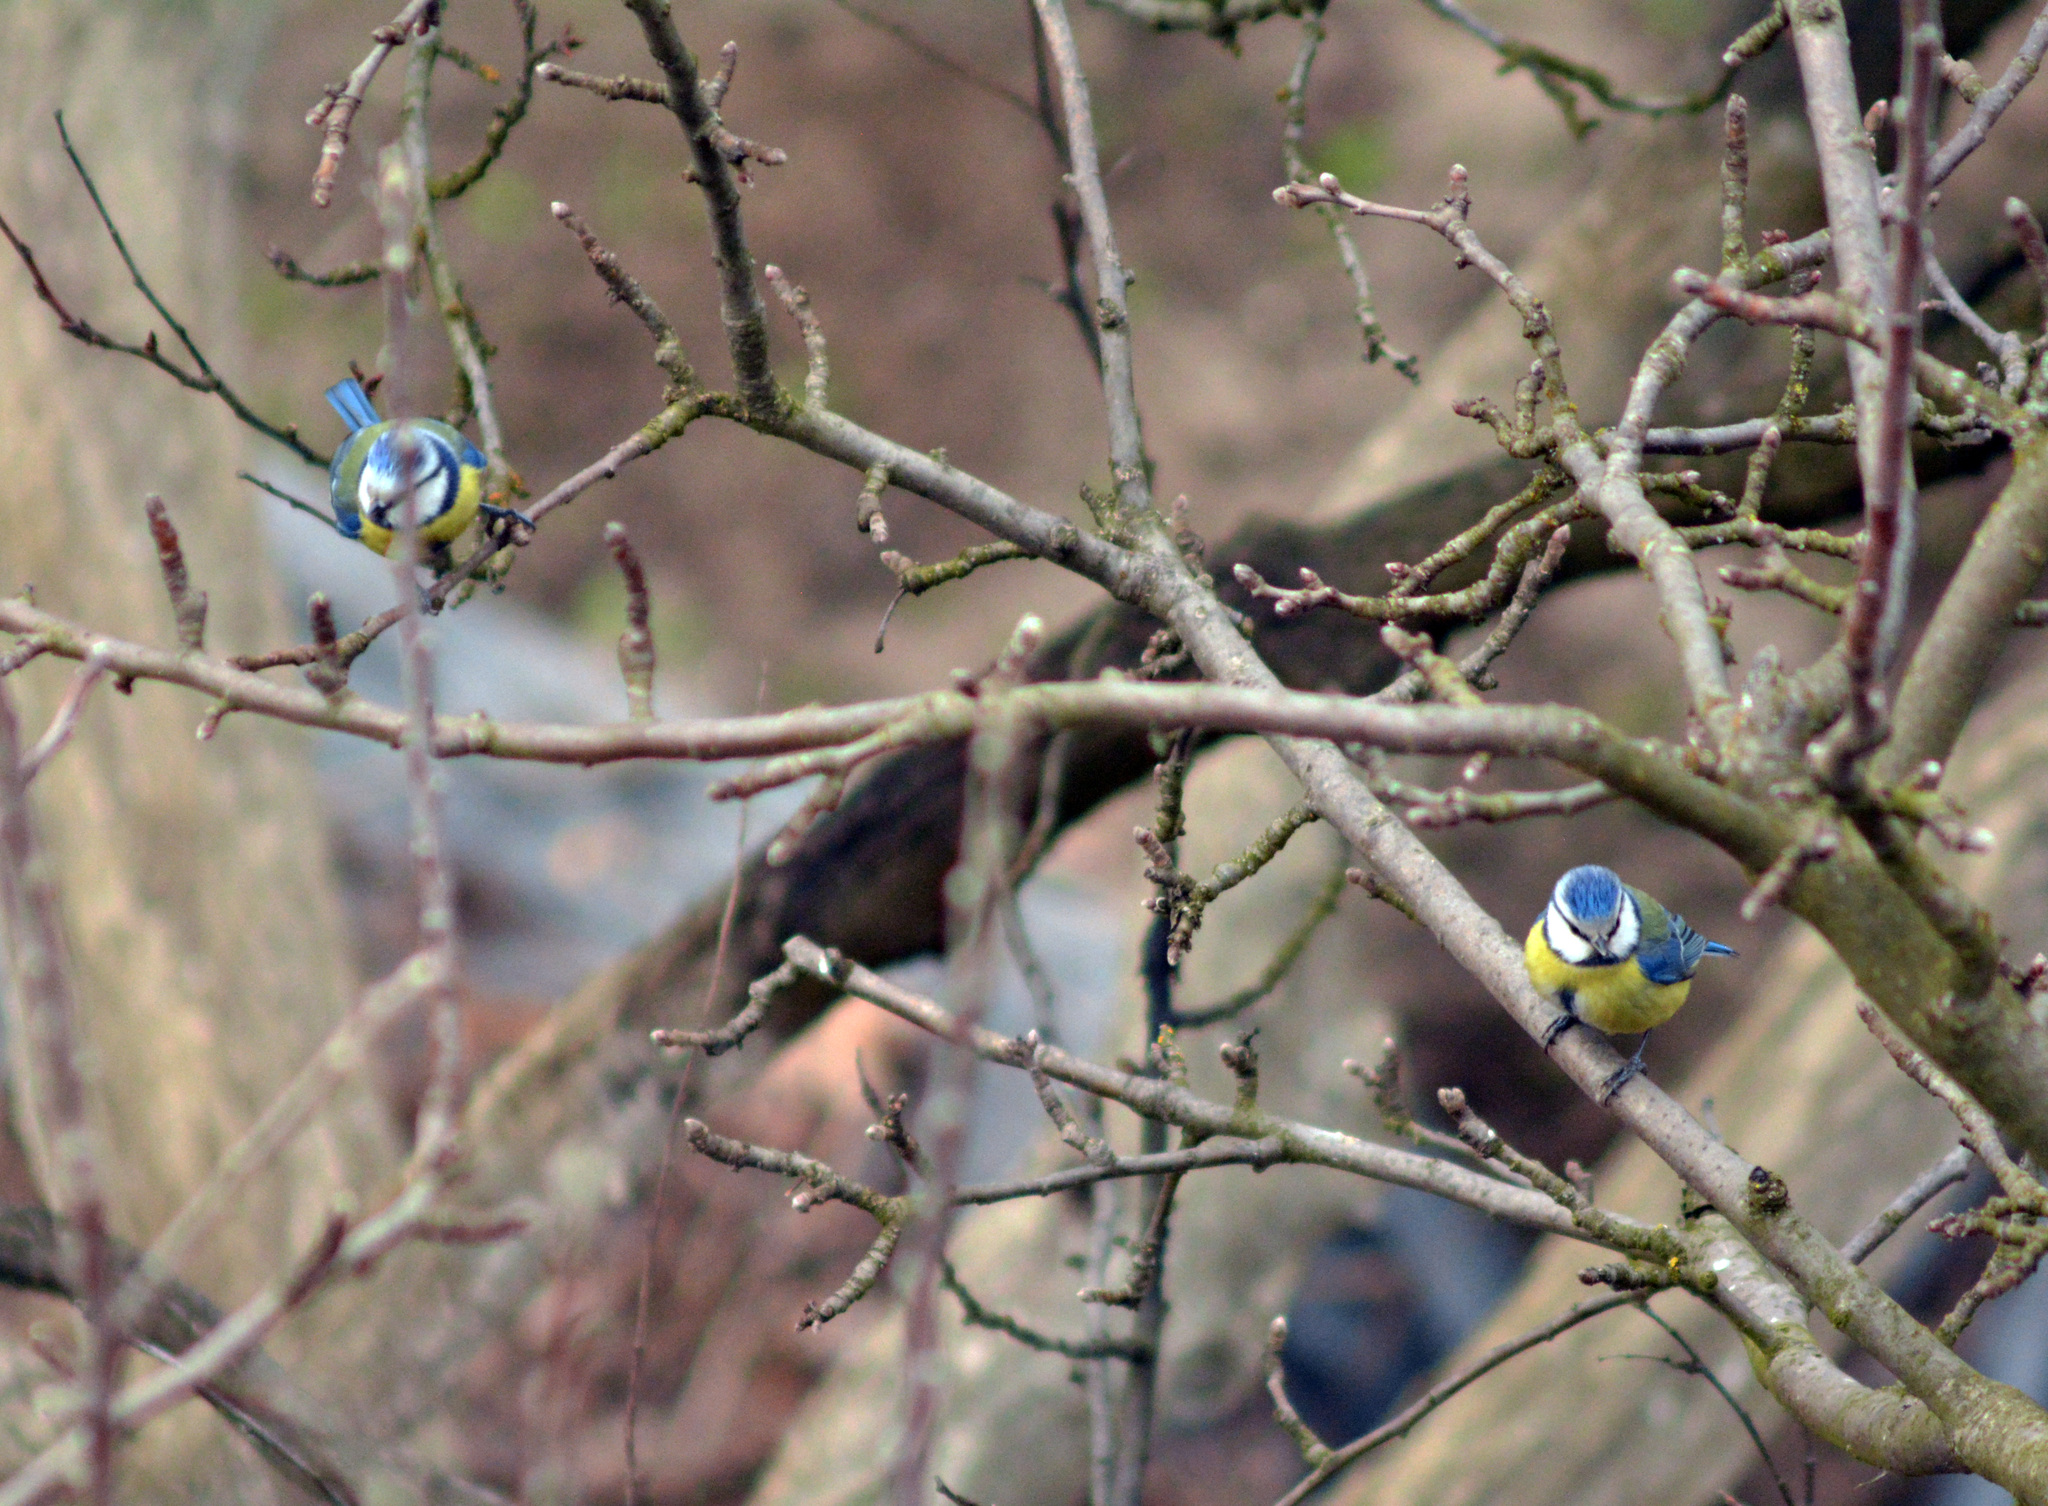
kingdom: Animalia
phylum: Chordata
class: Aves
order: Passeriformes
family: Paridae
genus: Cyanistes
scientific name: Cyanistes caeruleus
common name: Eurasian blue tit
